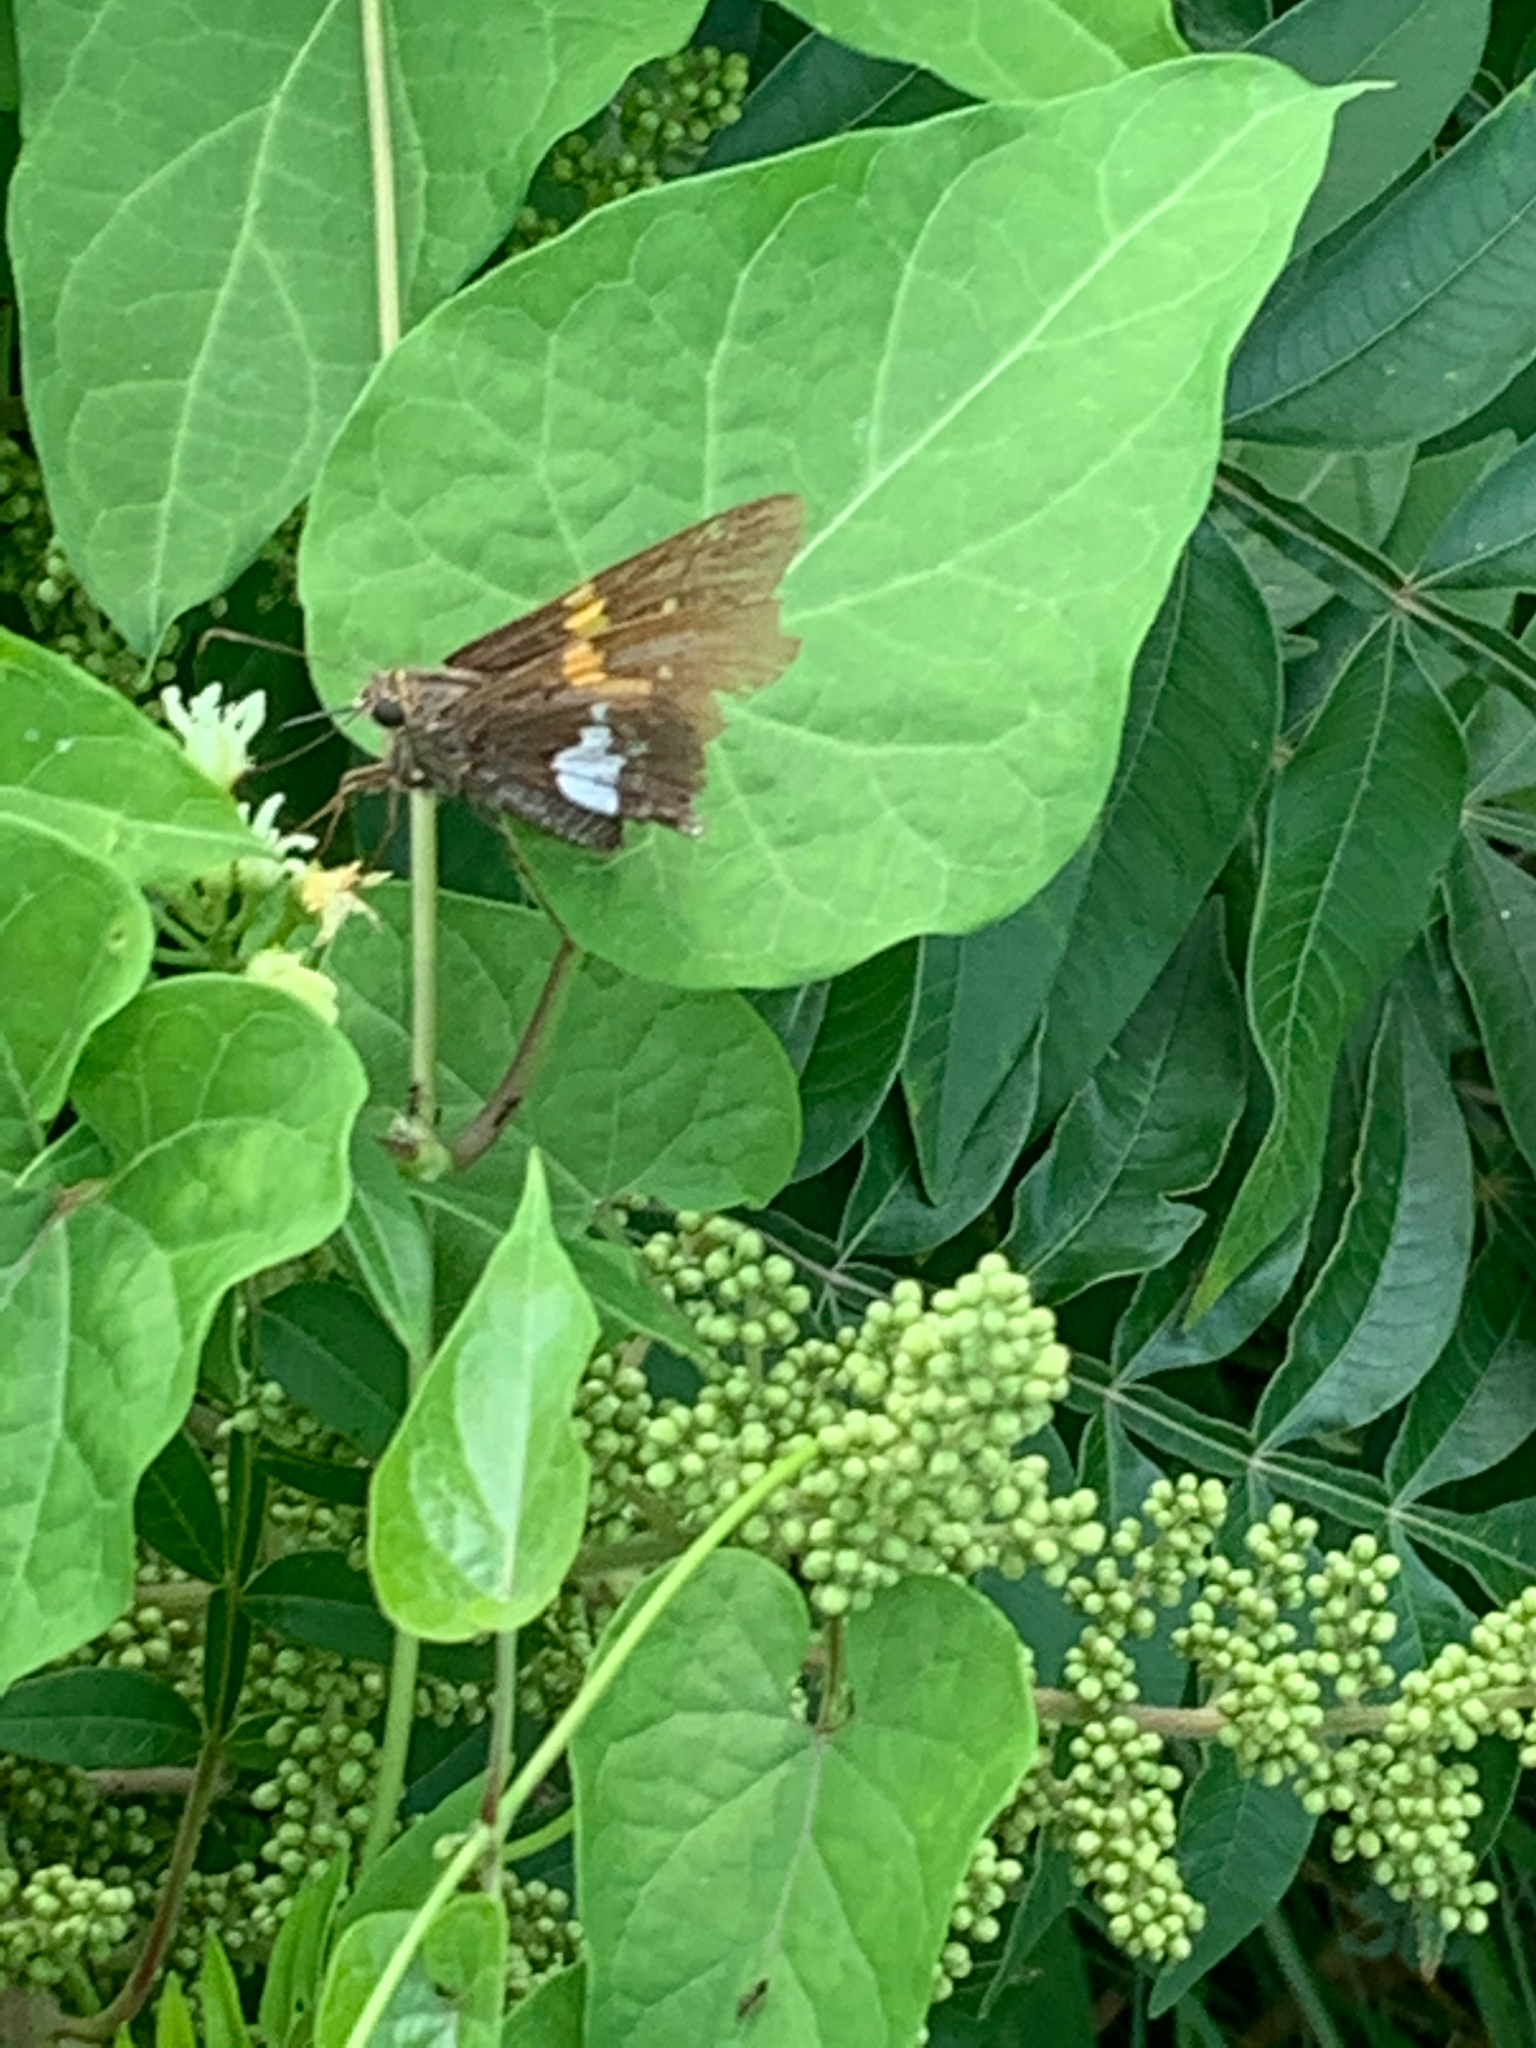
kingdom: Animalia
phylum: Arthropoda
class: Insecta
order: Lepidoptera
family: Hesperiidae
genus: Epargyreus
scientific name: Epargyreus clarus
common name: Silver-spotted skipper
